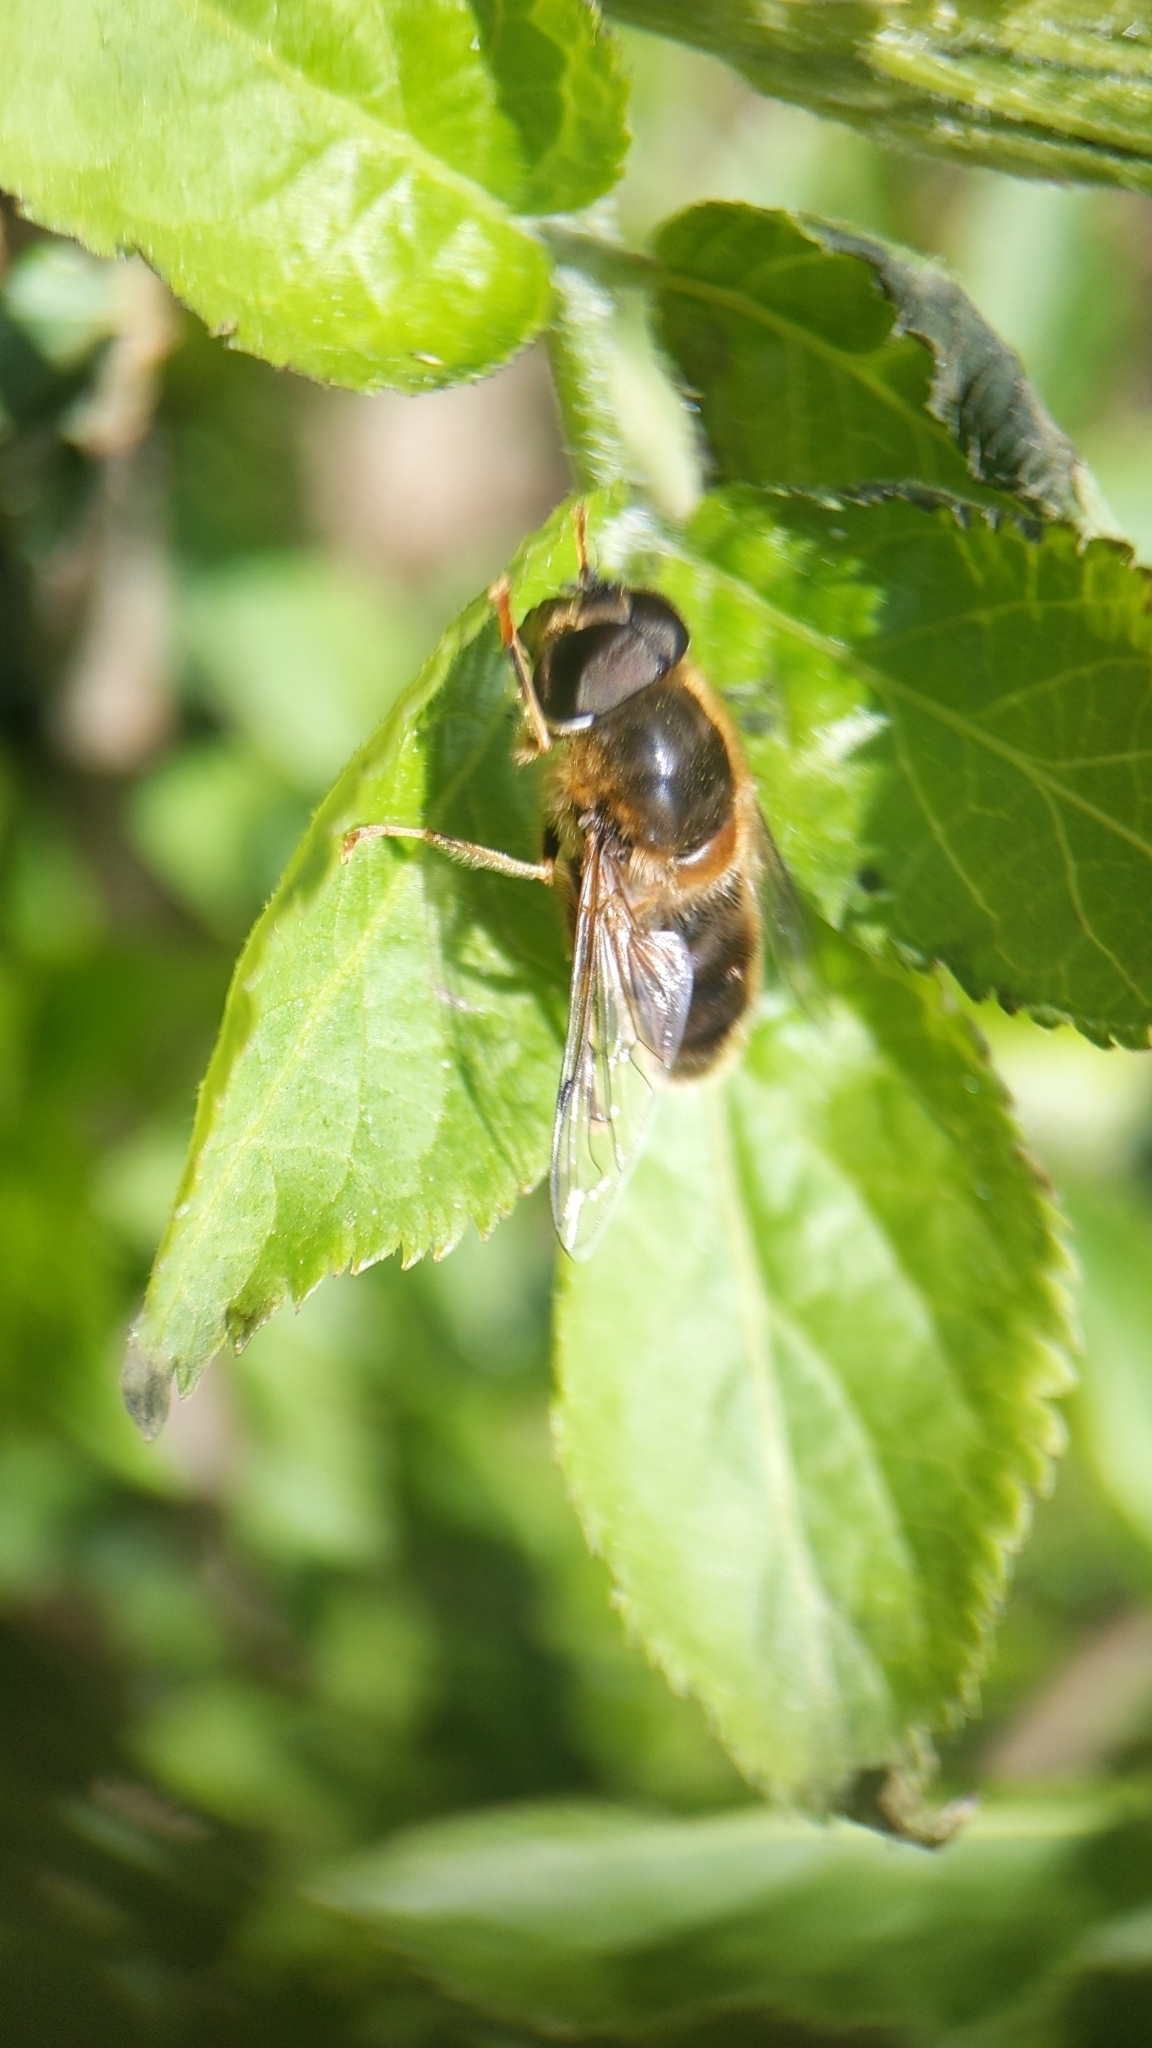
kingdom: Animalia
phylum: Arthropoda
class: Insecta
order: Diptera
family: Syrphidae
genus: Eristalis
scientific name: Eristalis pertinax
